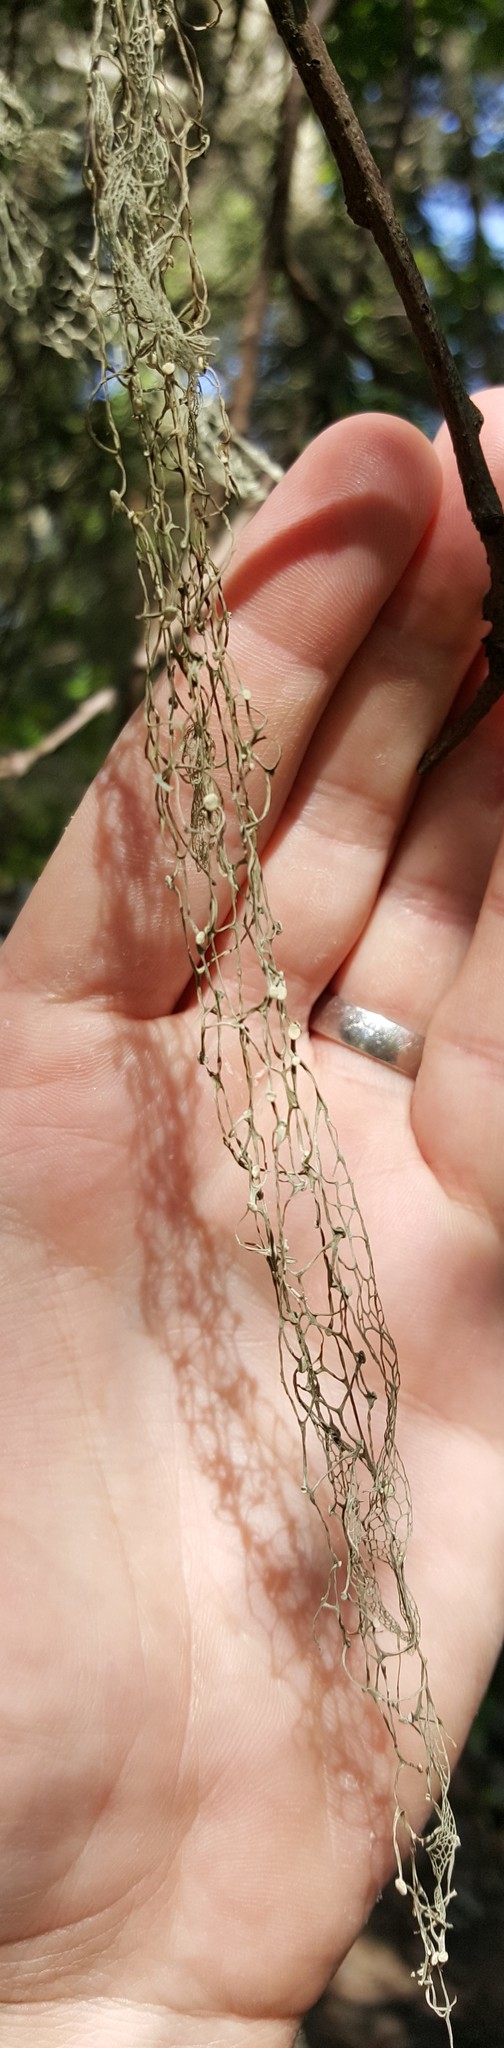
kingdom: Fungi
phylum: Ascomycota
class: Lecanoromycetes
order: Lecanorales
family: Ramalinaceae
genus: Ramalina
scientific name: Ramalina menziesii
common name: Lace lichen
